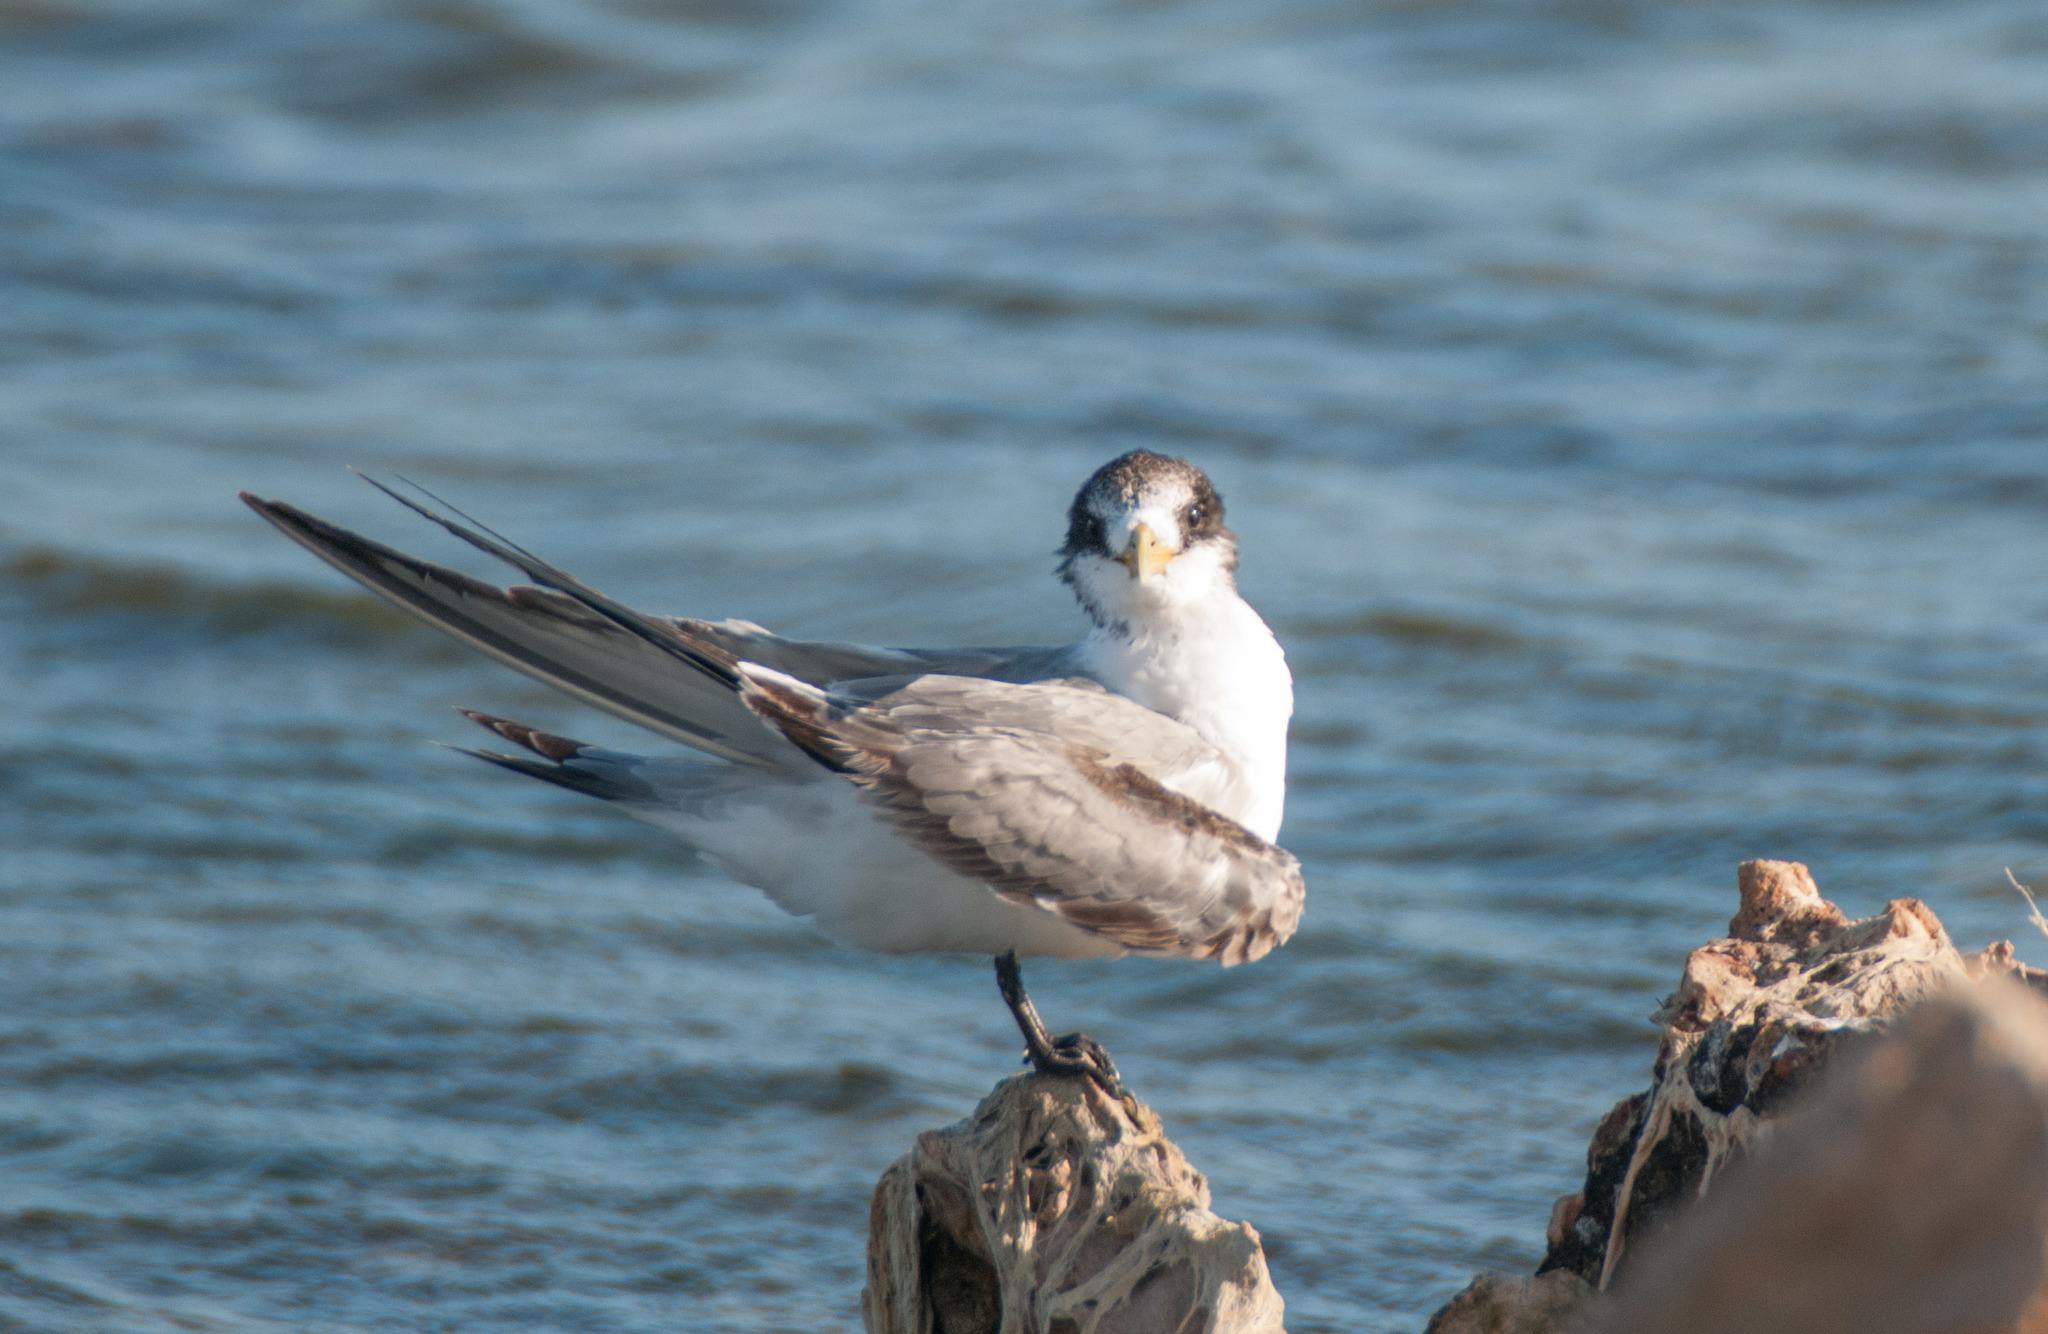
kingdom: Animalia
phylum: Chordata
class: Aves
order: Charadriiformes
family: Laridae
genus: Thalasseus
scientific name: Thalasseus bergii
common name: Greater crested tern
